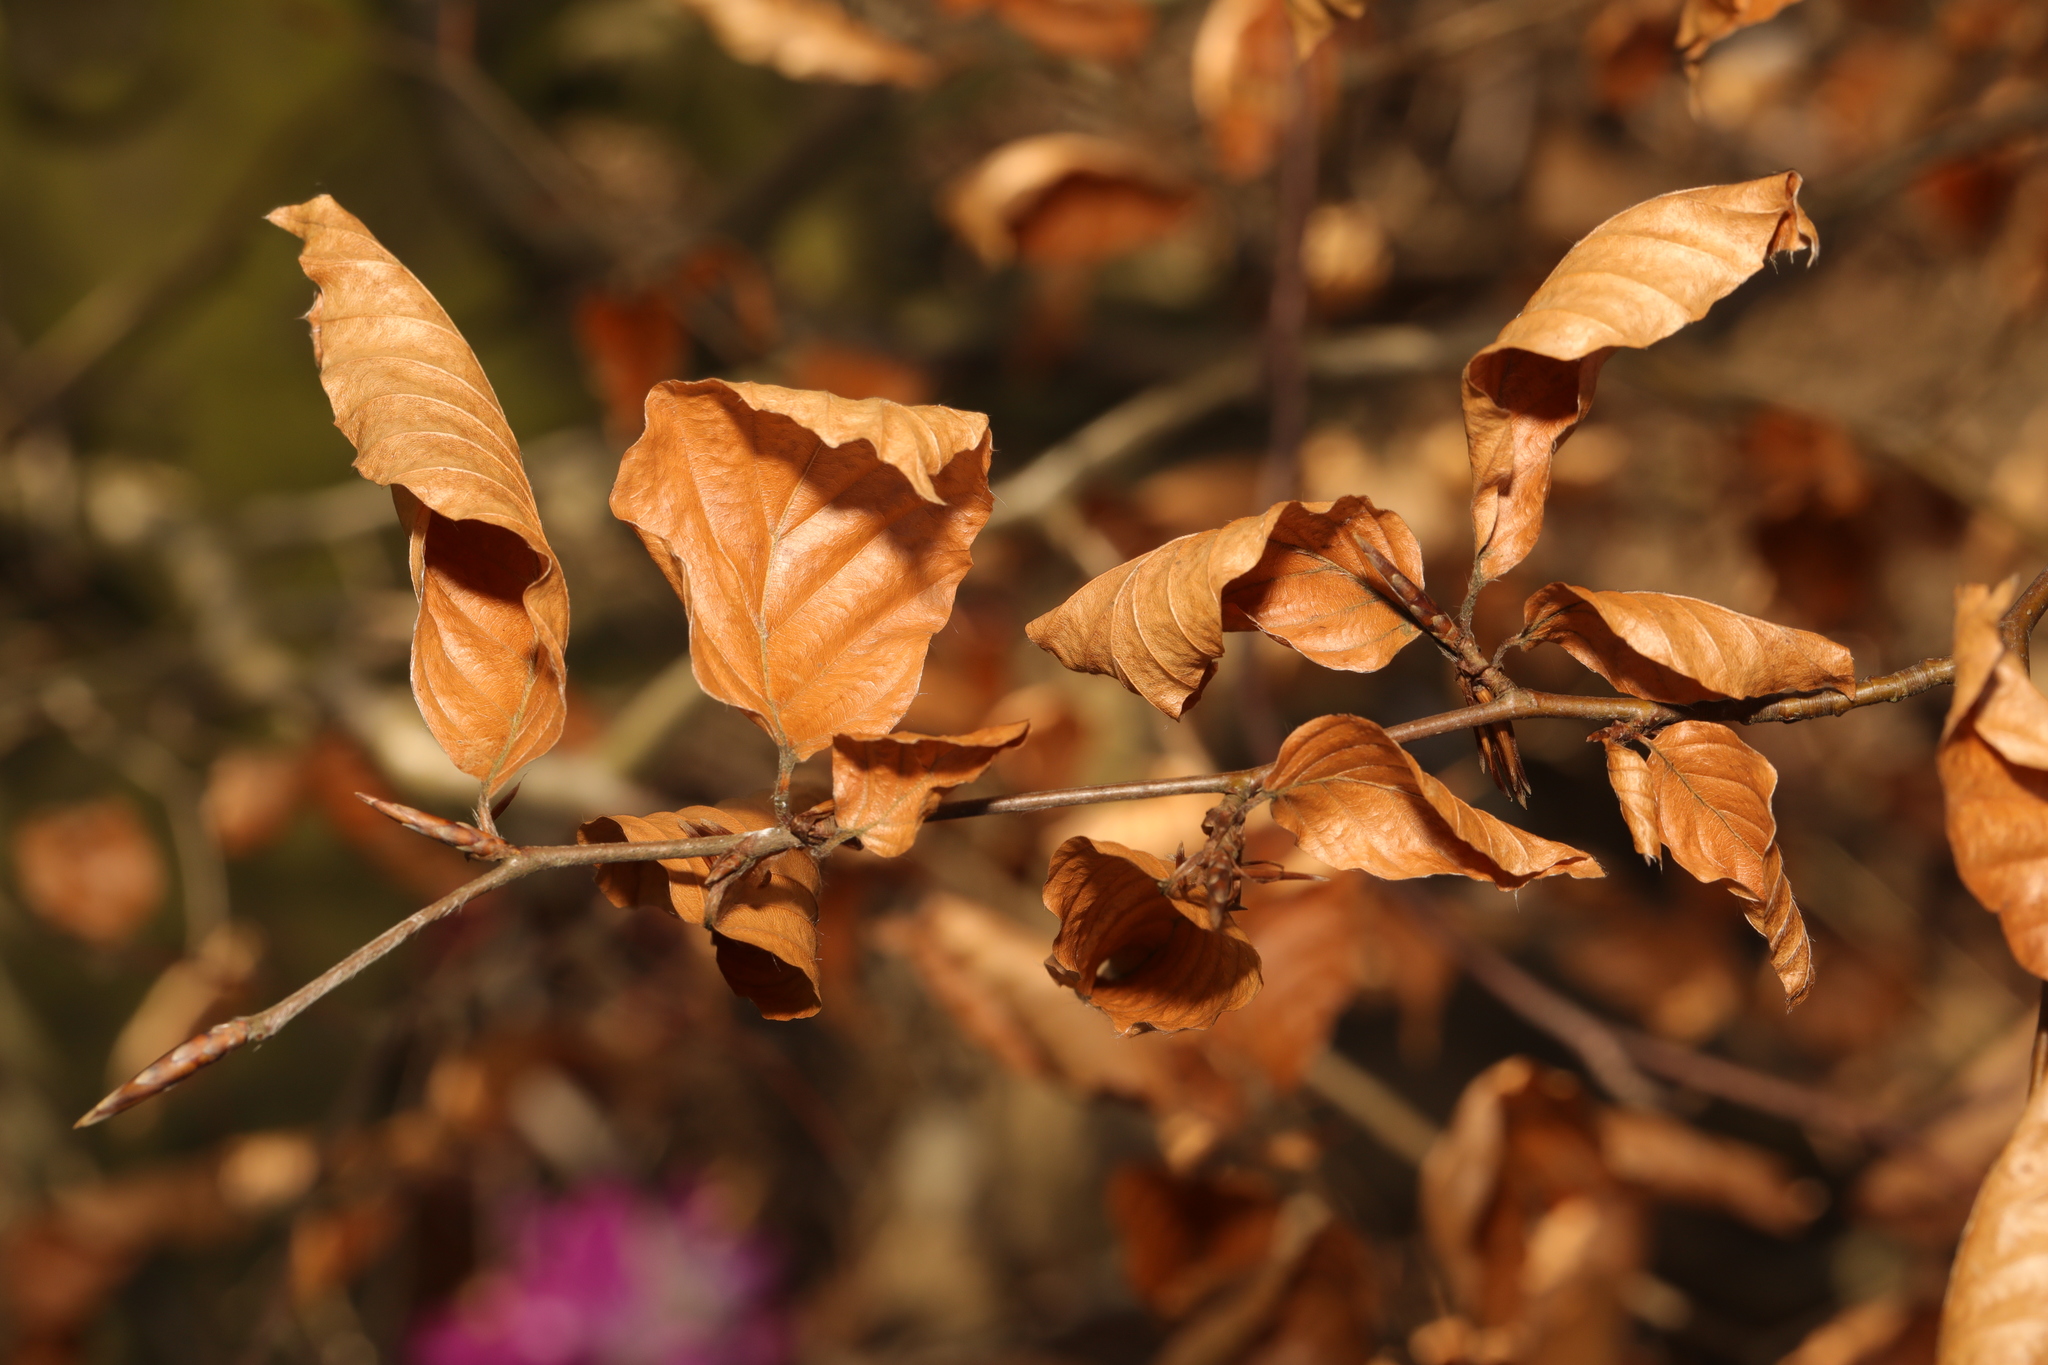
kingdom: Plantae
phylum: Tracheophyta
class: Magnoliopsida
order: Fagales
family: Fagaceae
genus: Fagus
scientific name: Fagus sylvatica
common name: Beech
